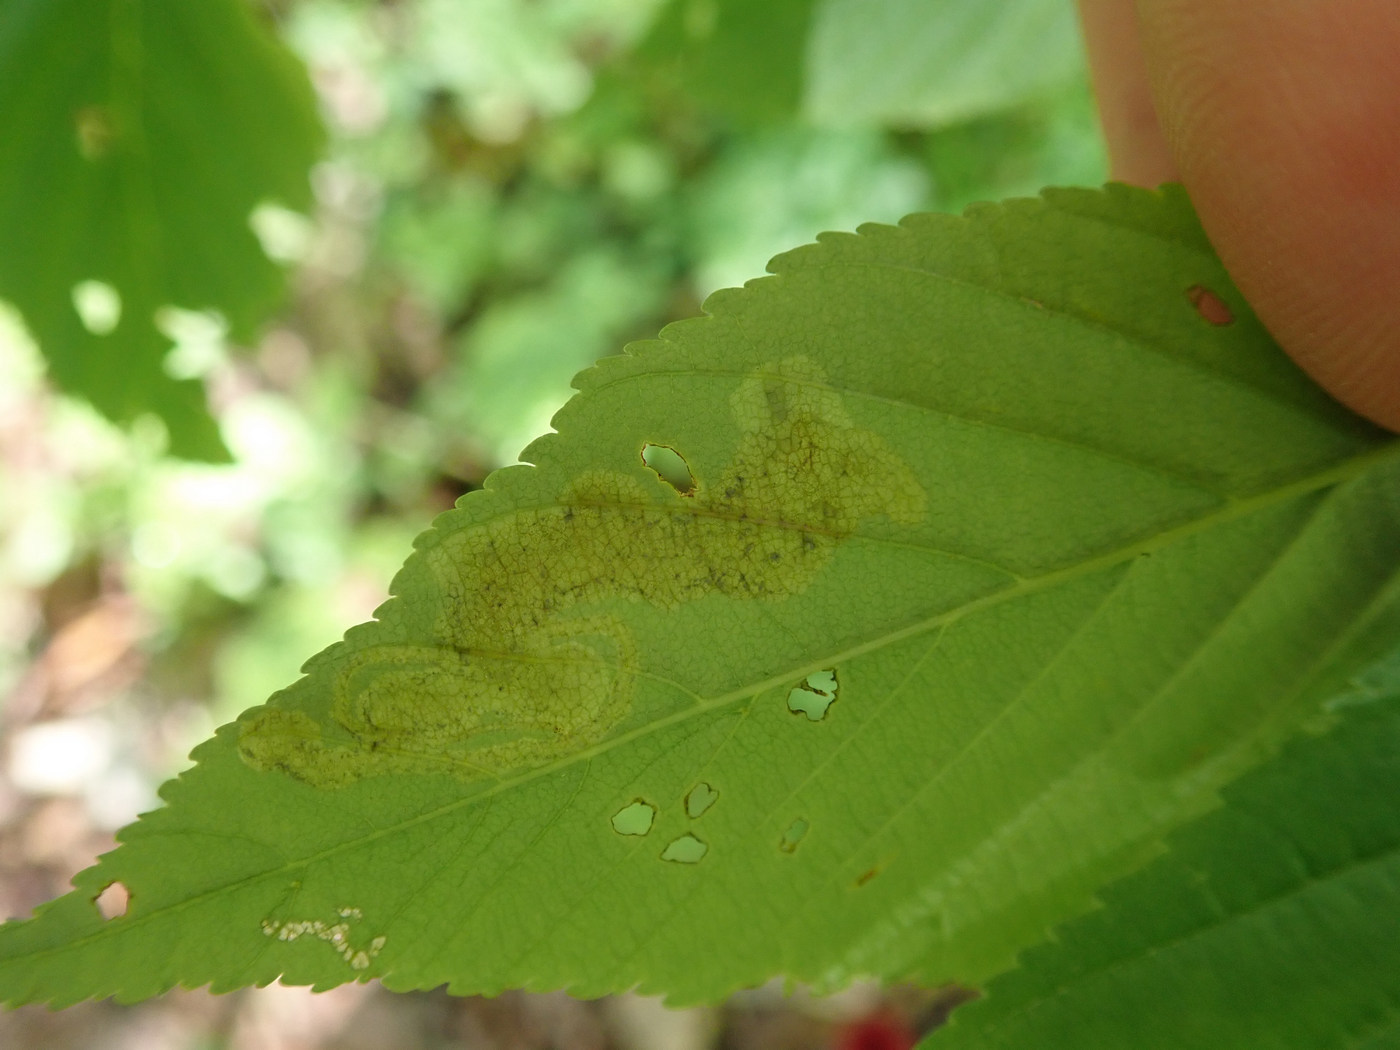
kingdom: Animalia
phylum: Arthropoda
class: Insecta
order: Diptera
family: Agromyzidae
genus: Phytomyza
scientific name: Phytomyza aesculi
